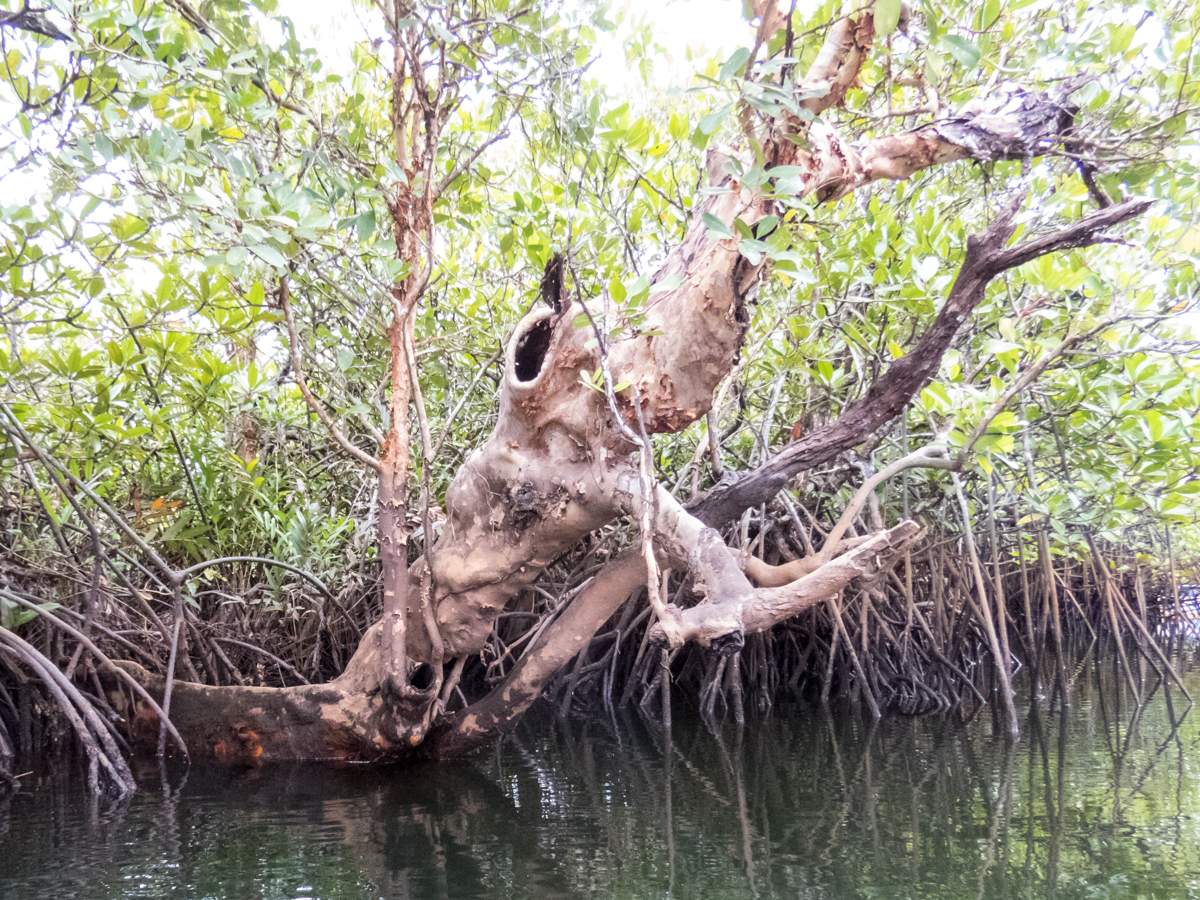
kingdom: Plantae
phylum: Tracheophyta
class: Magnoliopsida
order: Sapindales
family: Meliaceae
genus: Xylocarpus
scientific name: Xylocarpus granatum
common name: Apple mangrove
